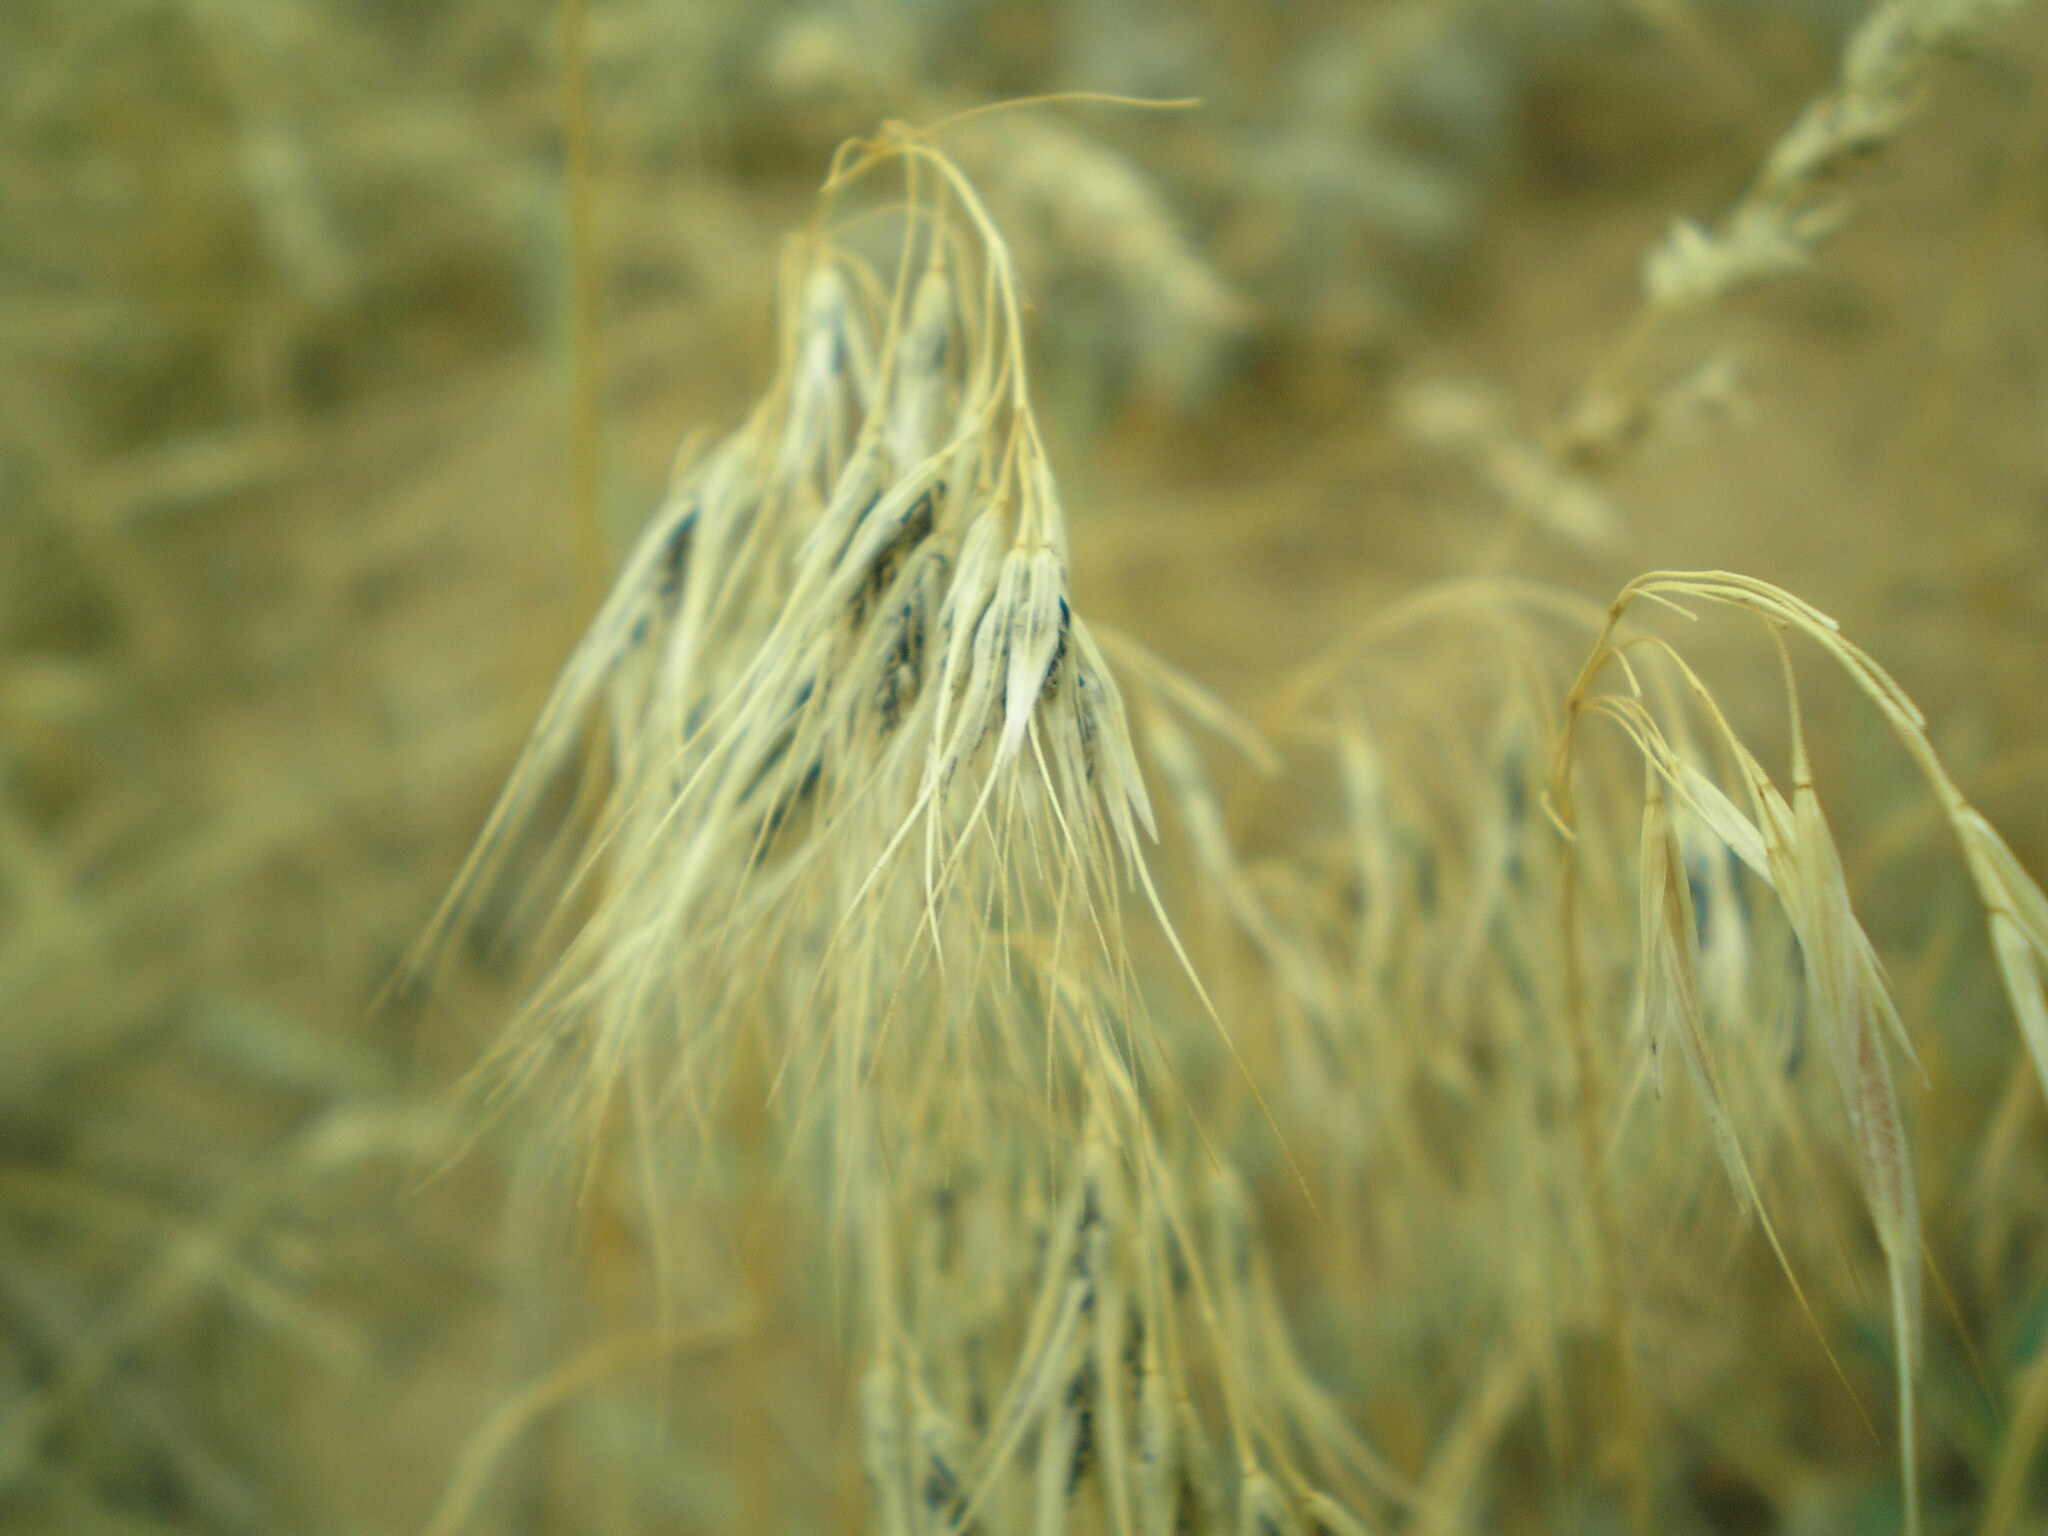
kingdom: Plantae
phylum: Tracheophyta
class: Liliopsida
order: Poales
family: Poaceae
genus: Bromus
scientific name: Bromus tectorum
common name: Cheatgrass
